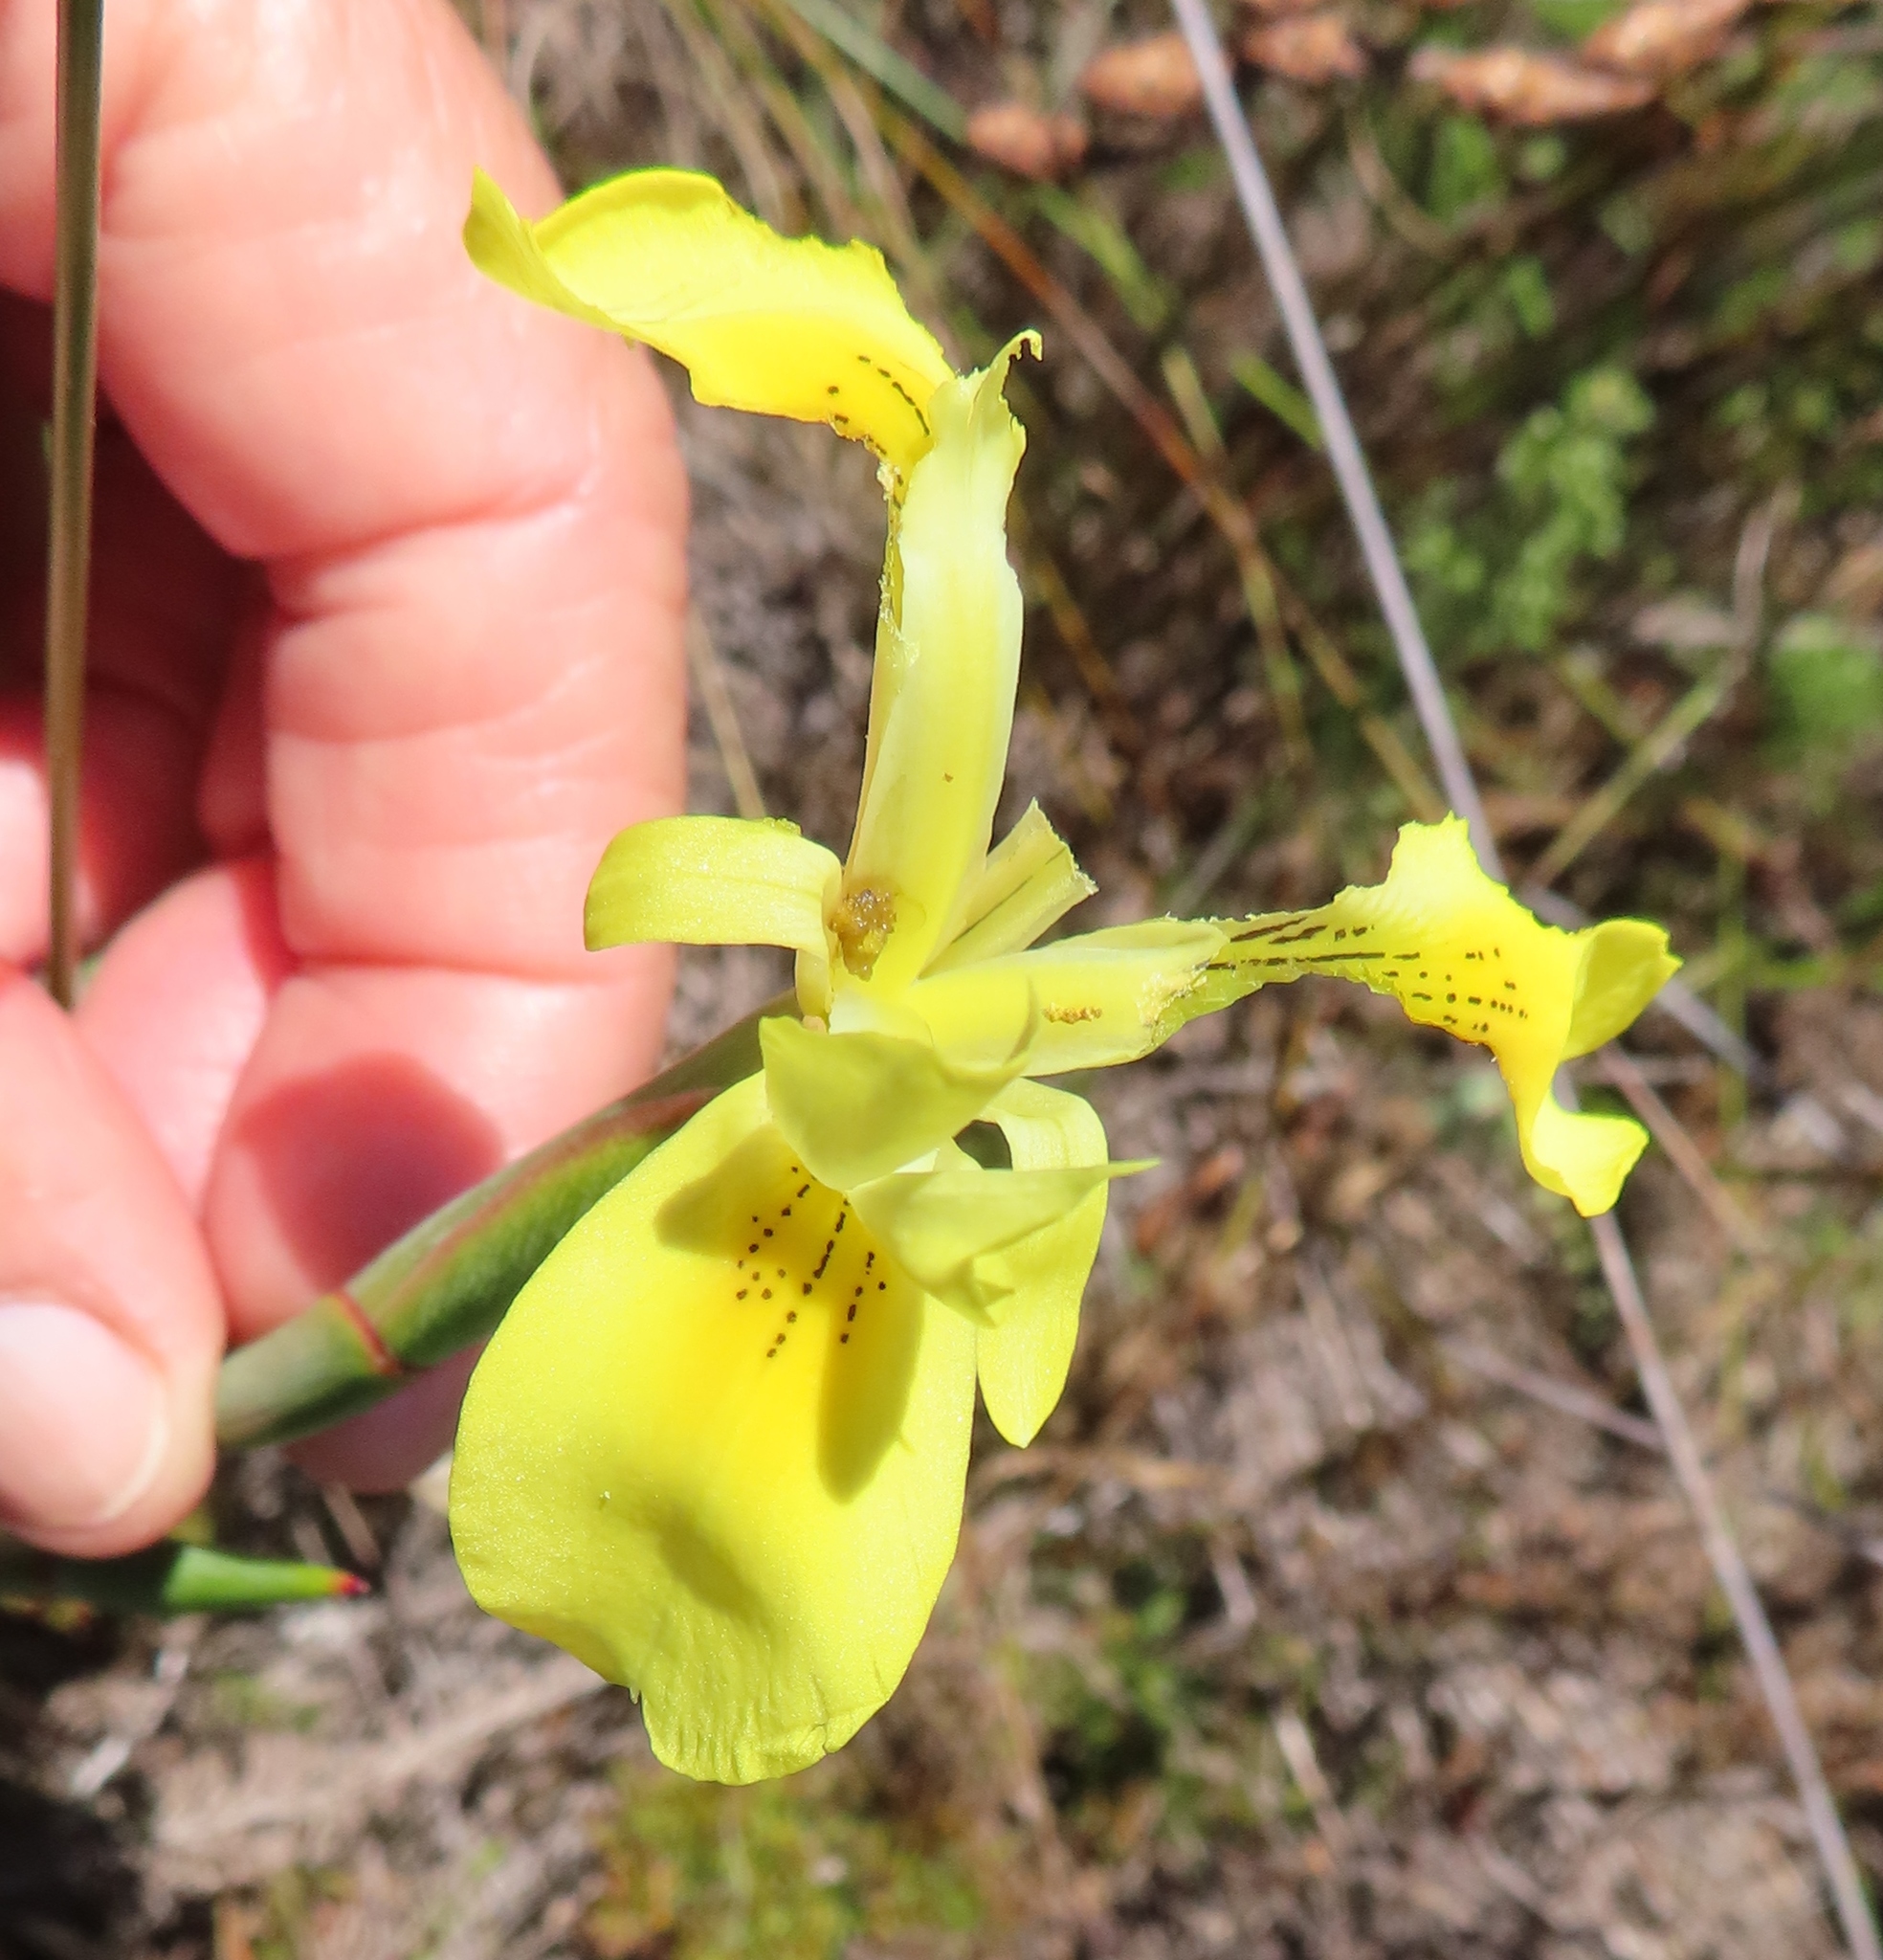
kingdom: Plantae
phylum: Tracheophyta
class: Liliopsida
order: Asparagales
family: Iridaceae
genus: Moraea
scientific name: Moraea neglecta
